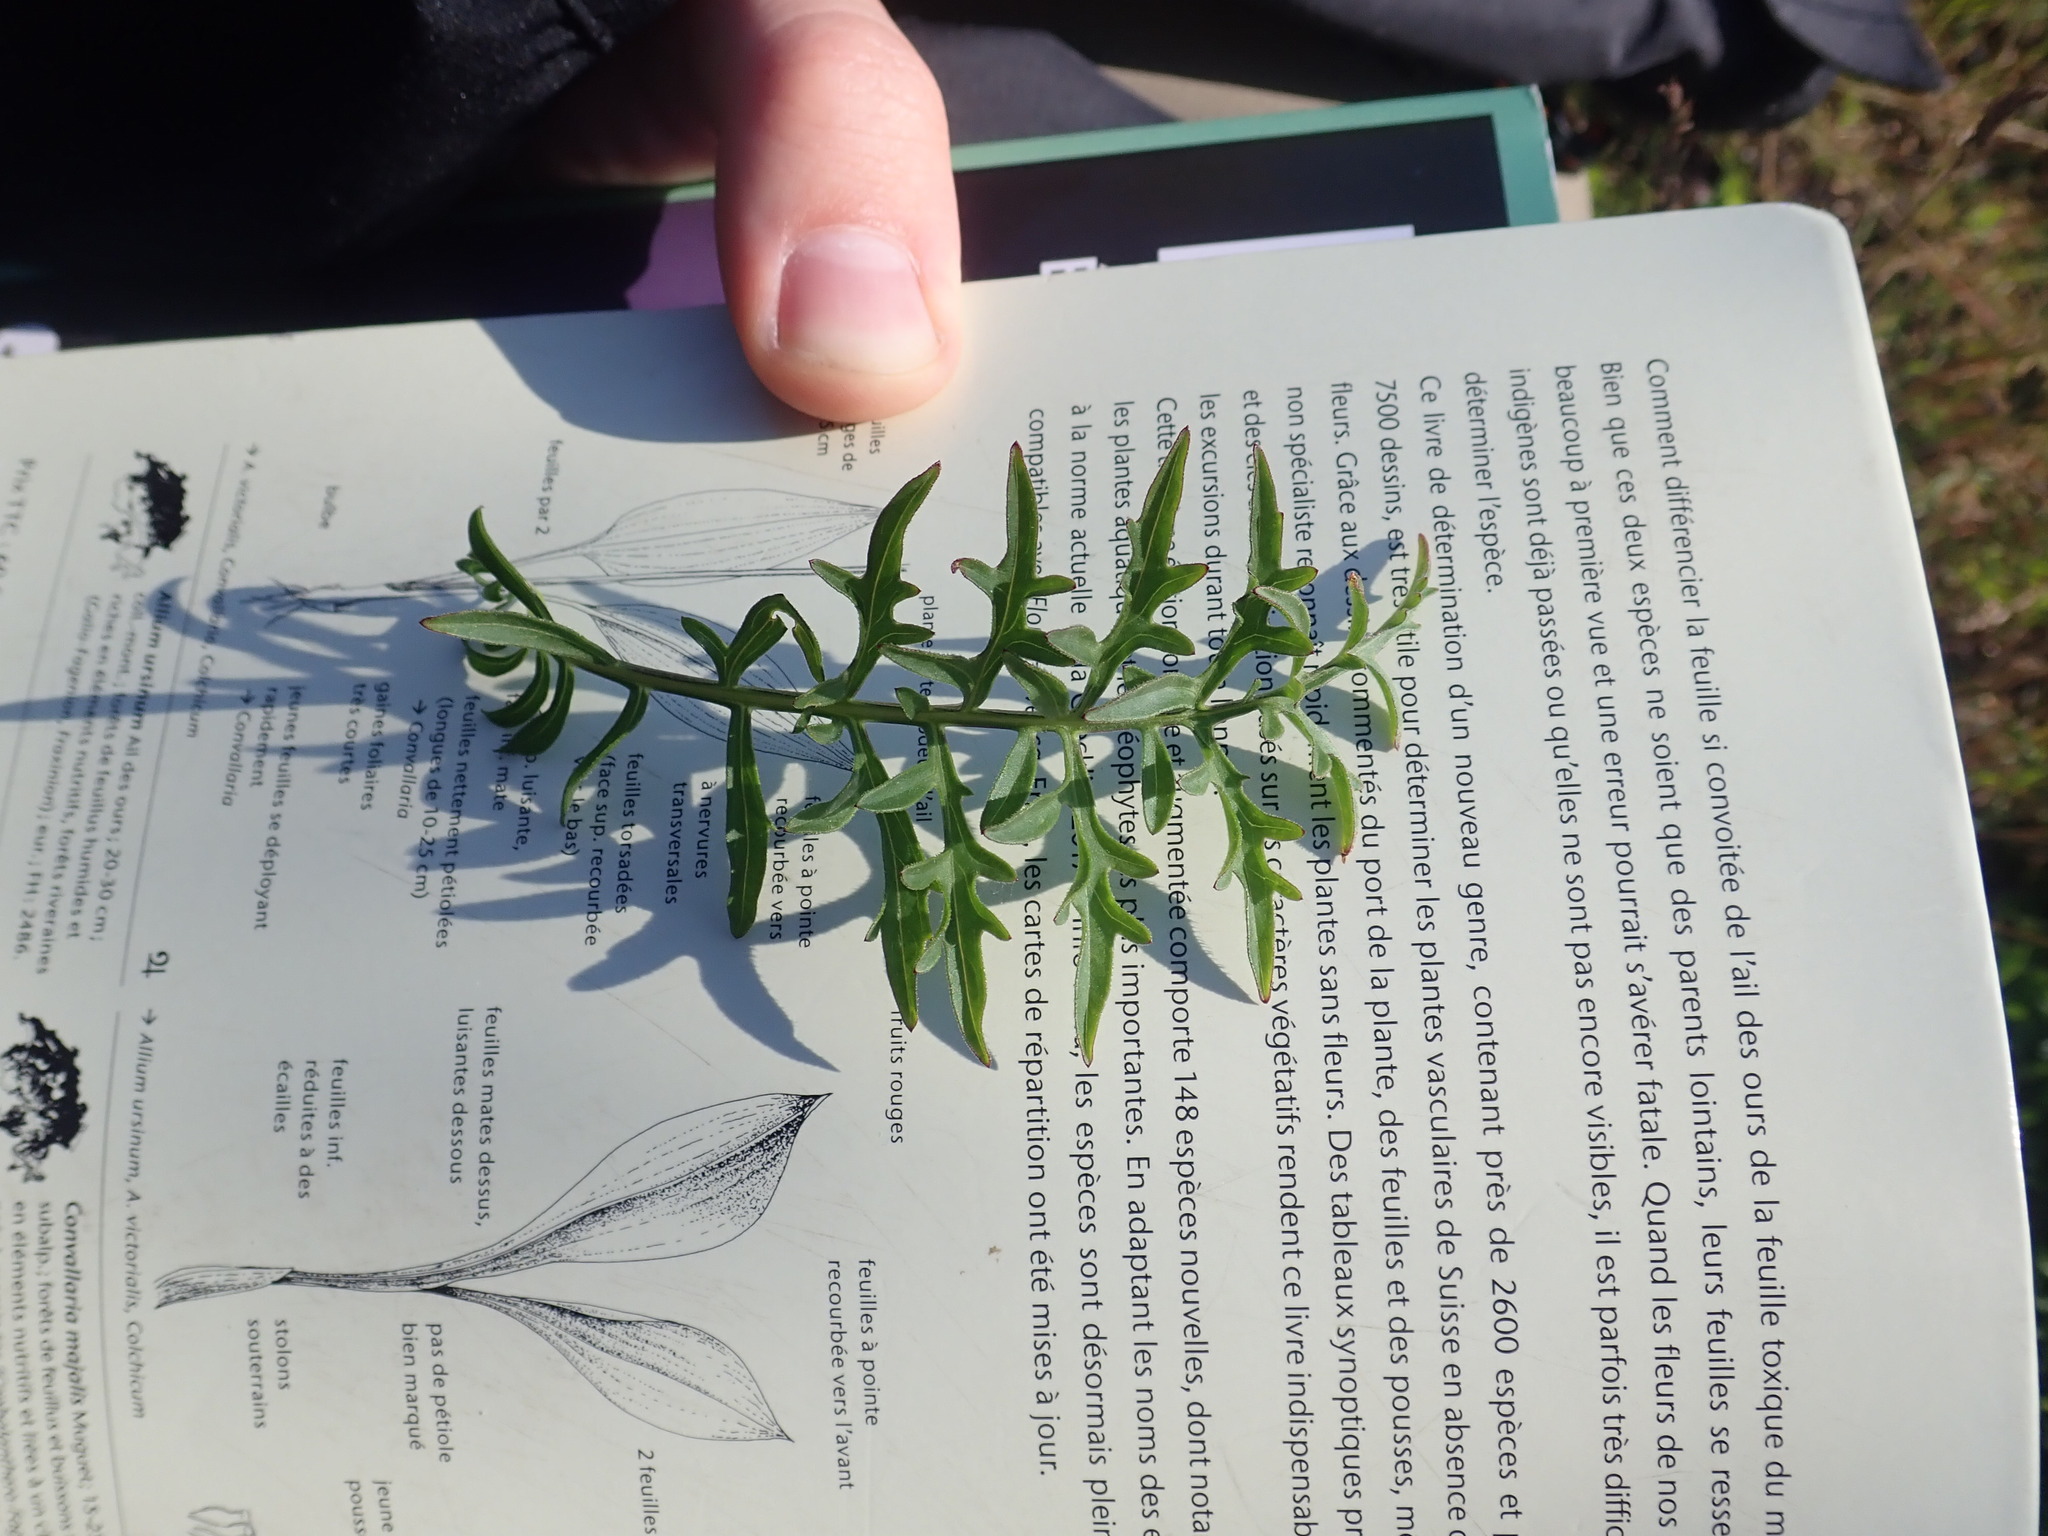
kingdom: Plantae
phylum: Tracheophyta
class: Magnoliopsida
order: Asterales
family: Asteraceae
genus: Centaurea
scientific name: Centaurea scabiosa
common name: Greater knapweed
